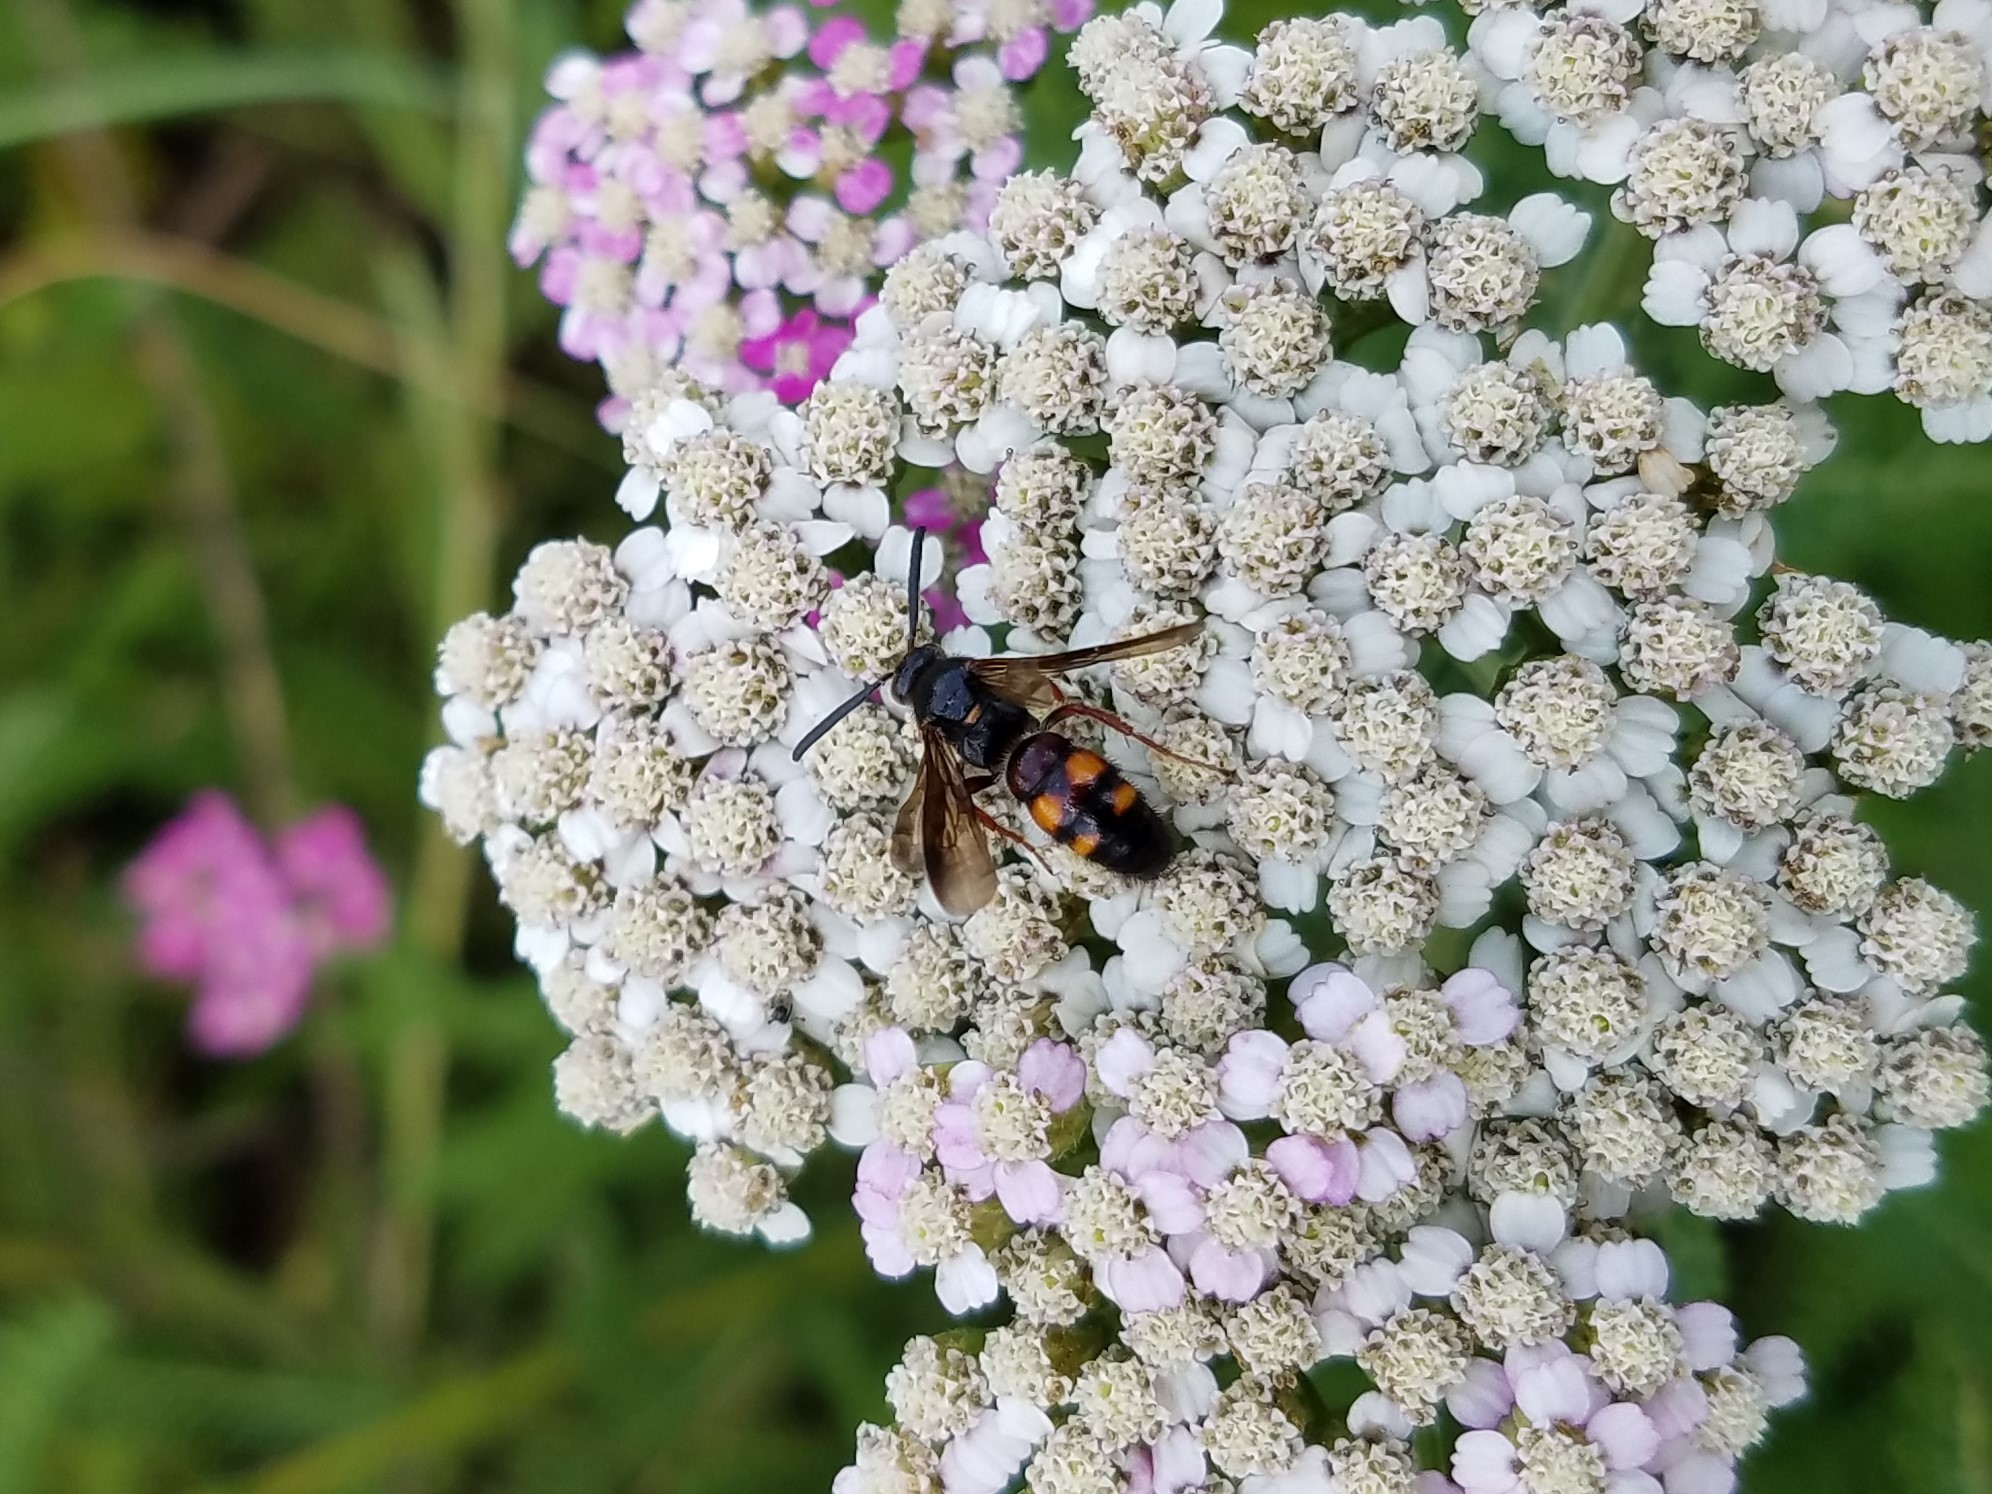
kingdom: Animalia
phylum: Arthropoda
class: Insecta
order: Hymenoptera
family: Scoliidae
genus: Scolia
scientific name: Scolia nobilitata
